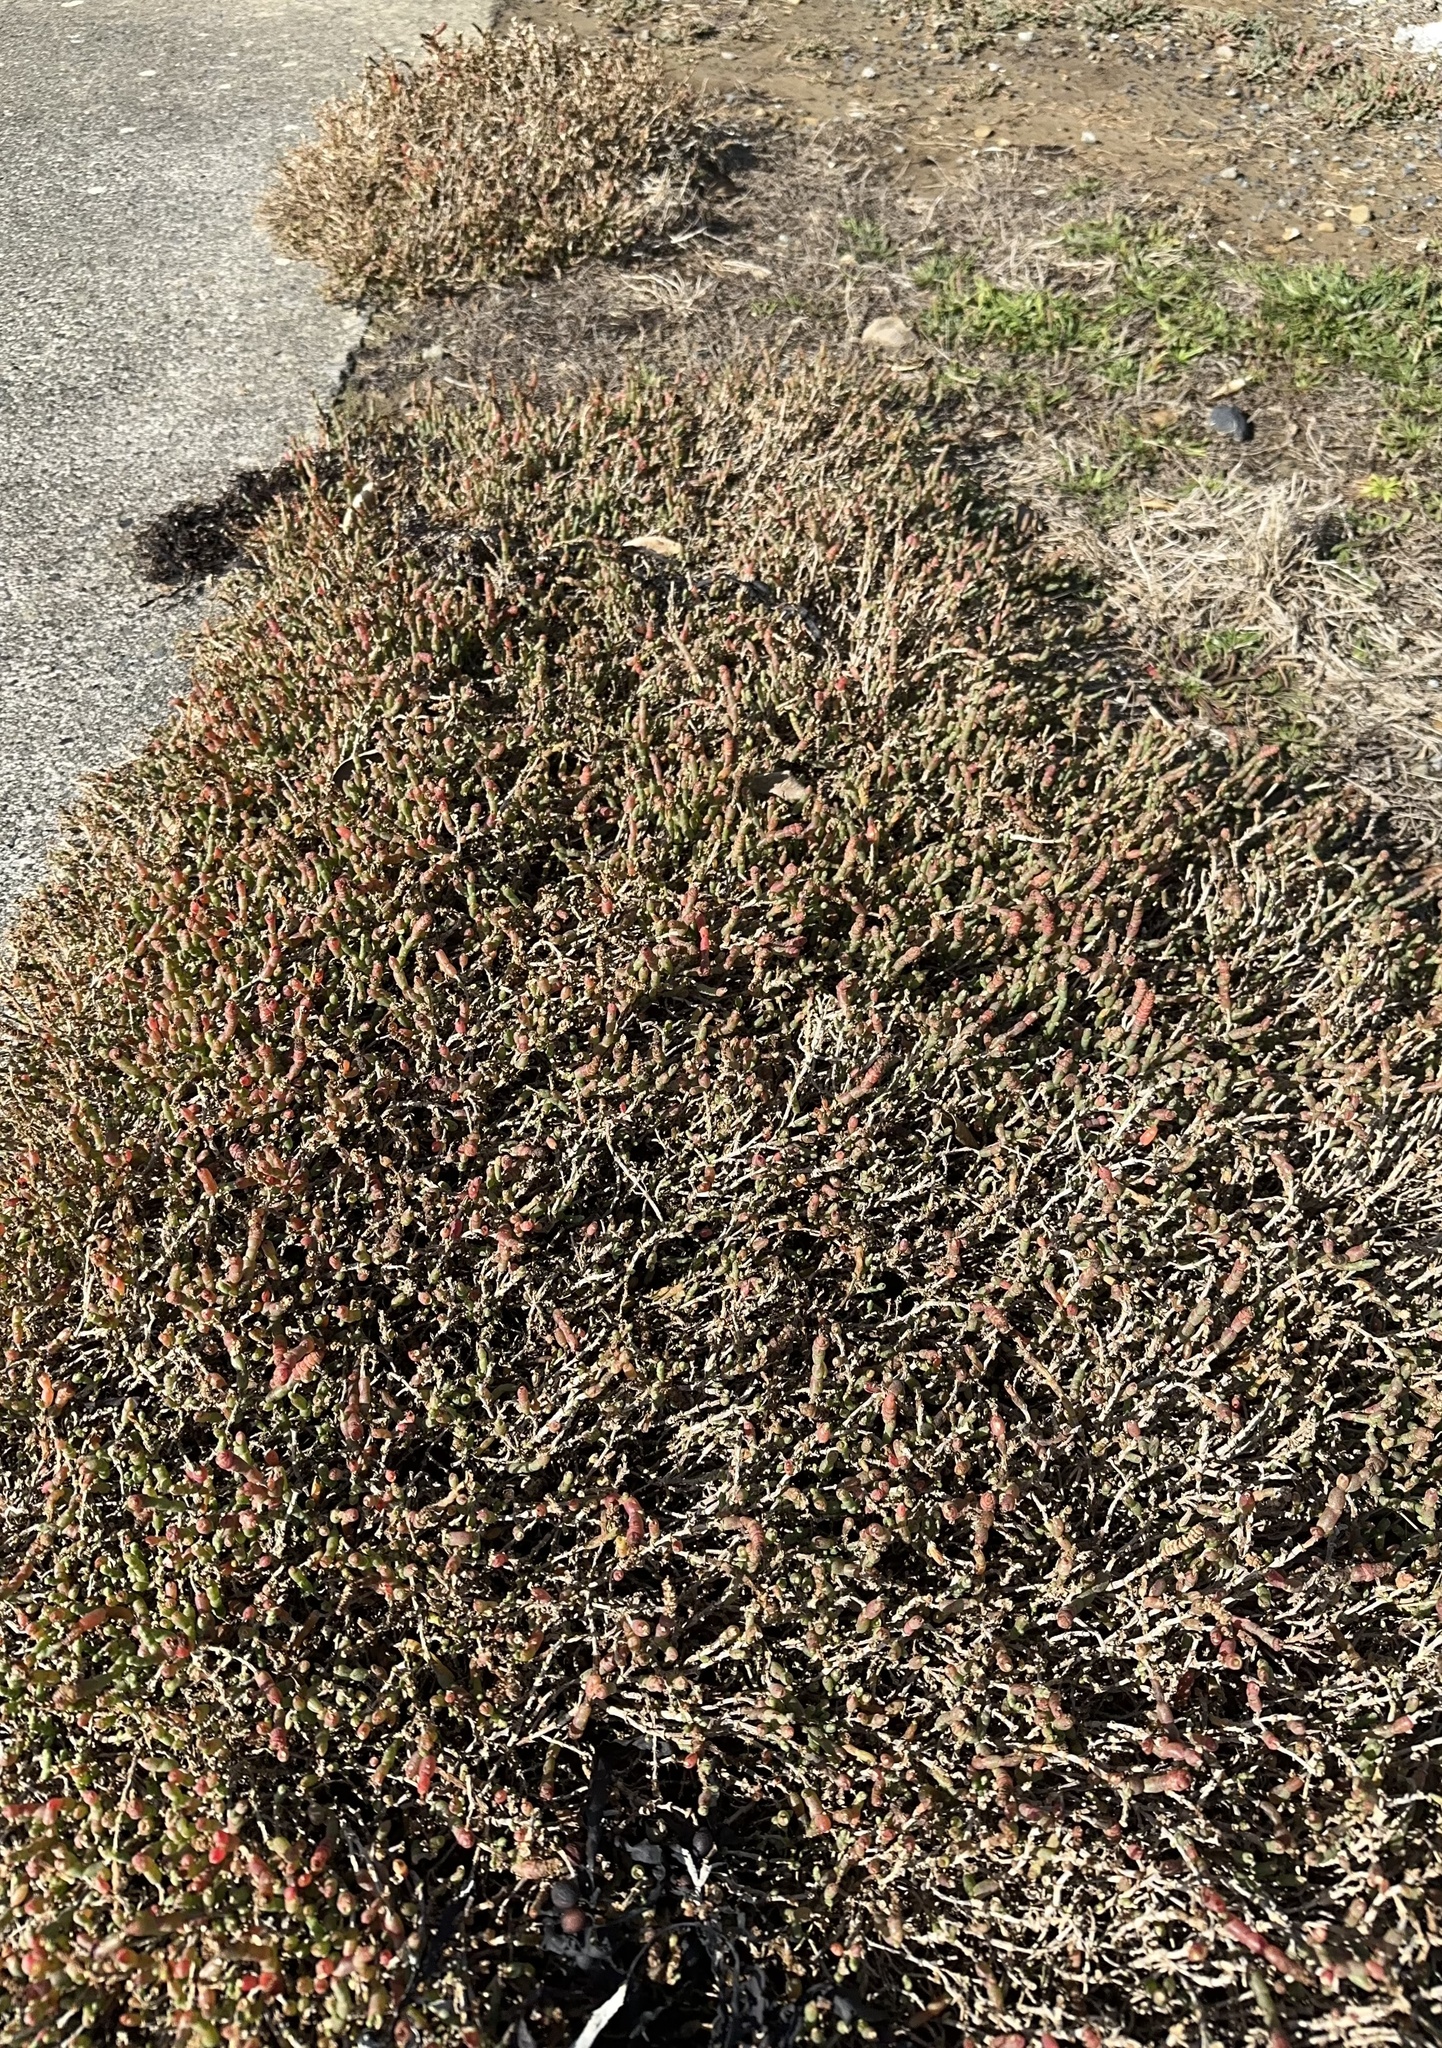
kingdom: Plantae
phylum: Tracheophyta
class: Magnoliopsida
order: Caryophyllales
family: Amaranthaceae
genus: Salicornia
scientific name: Salicornia quinqueflora
